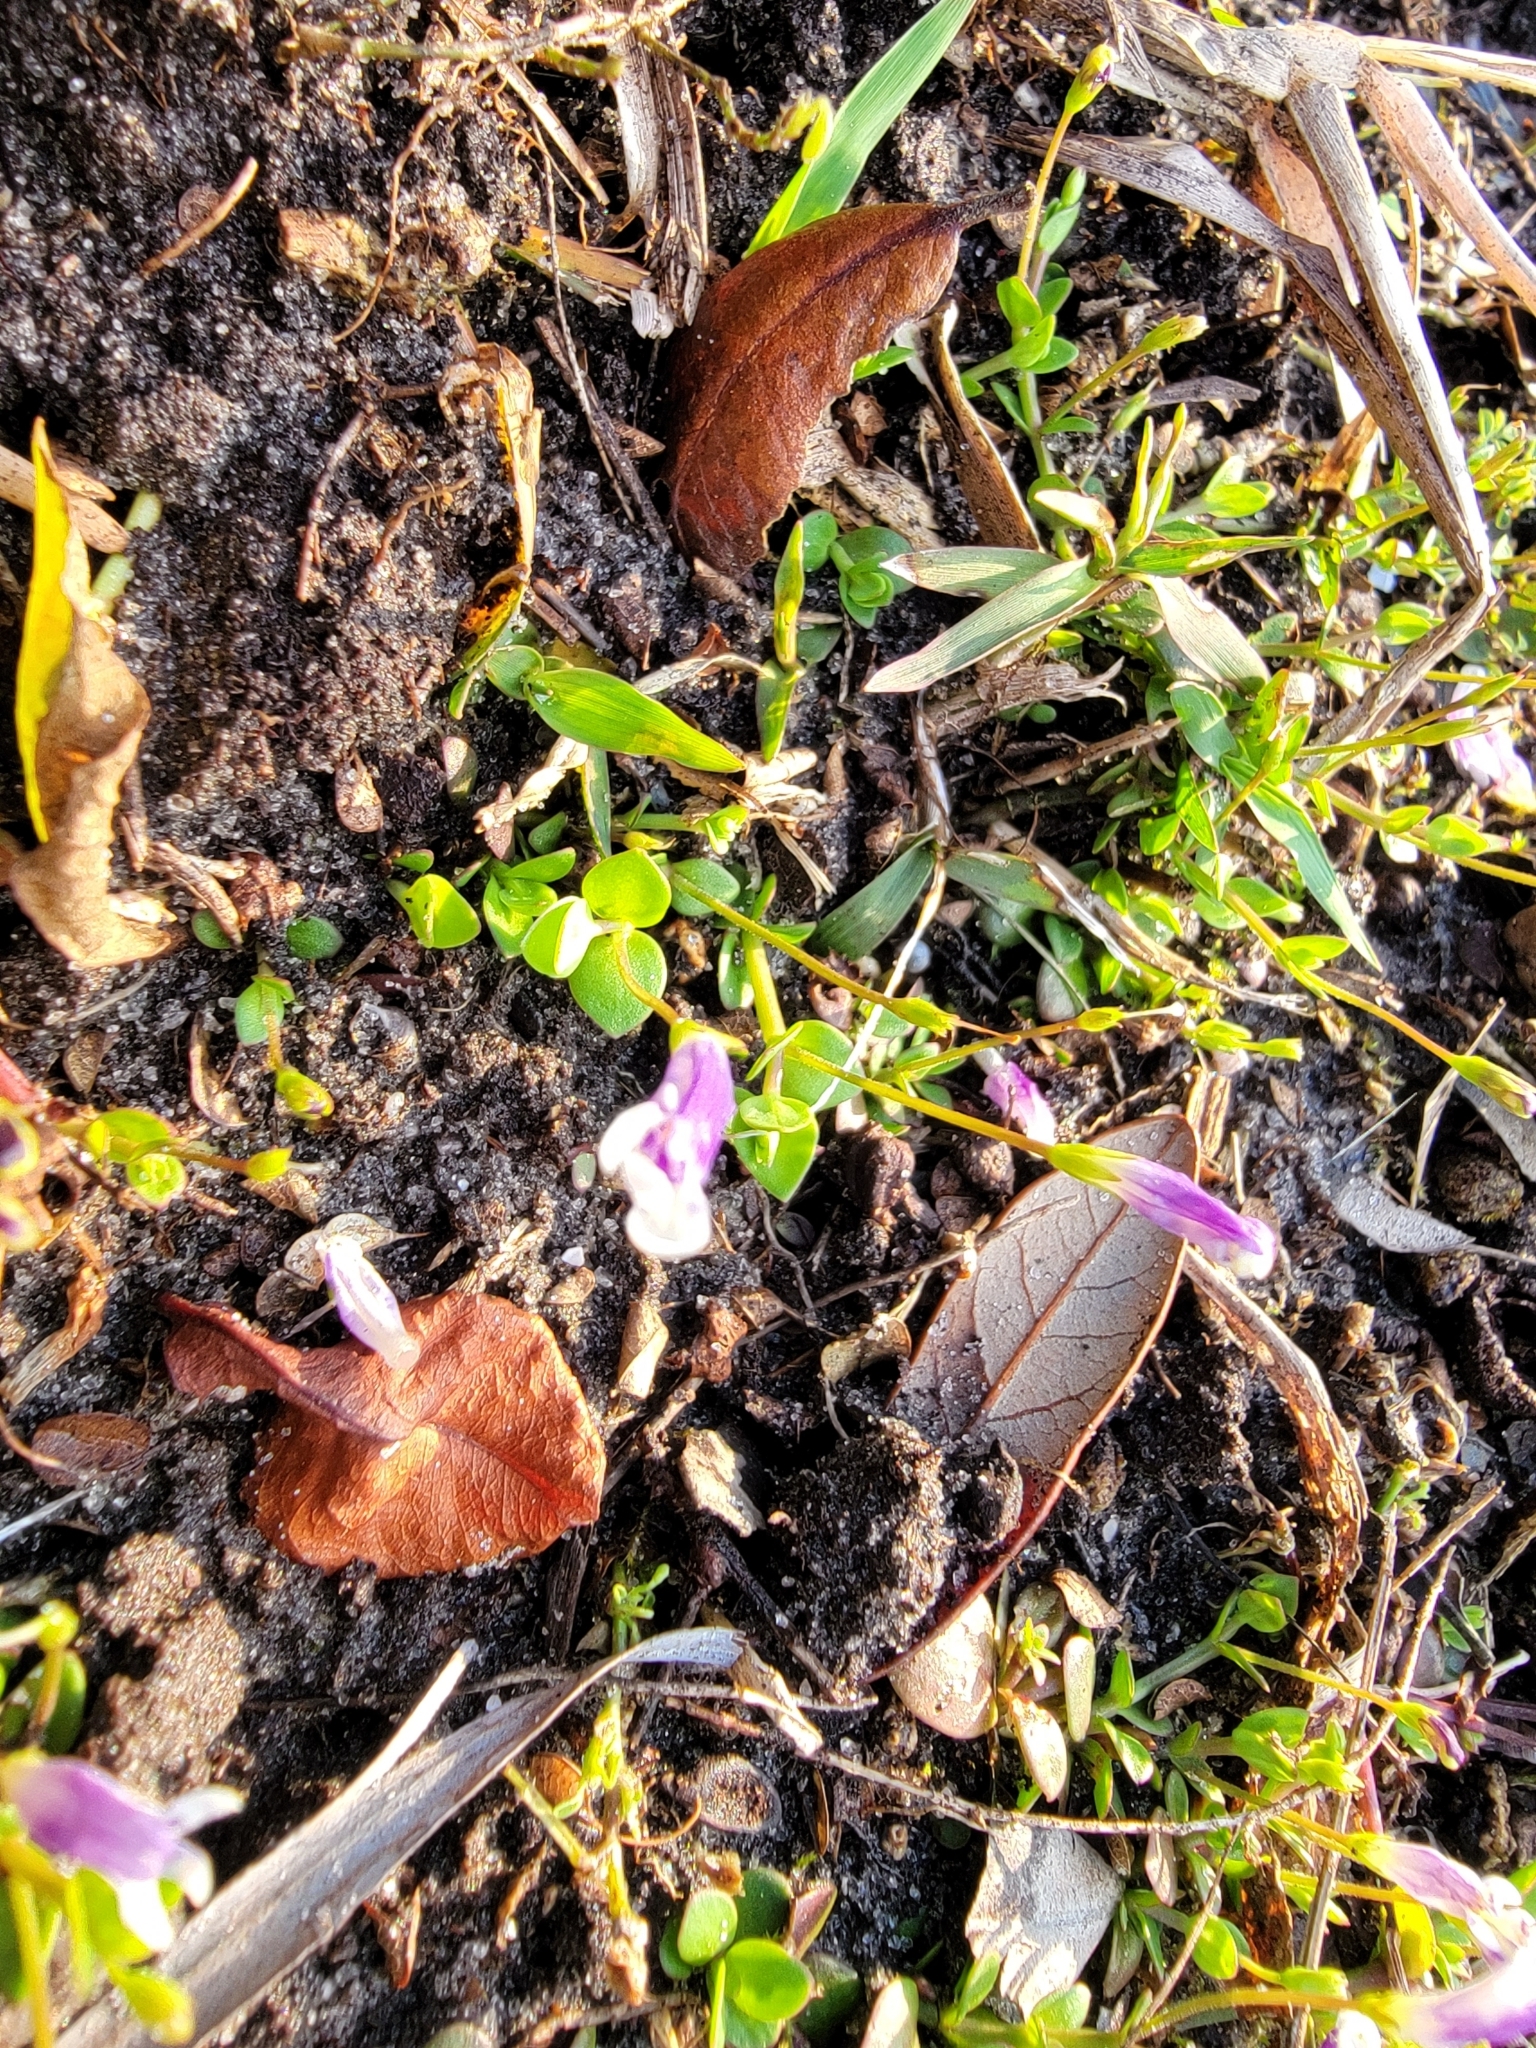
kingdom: Plantae
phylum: Tracheophyta
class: Magnoliopsida
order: Lamiales
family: Linderniaceae
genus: Lindernia
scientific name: Lindernia grandiflora
